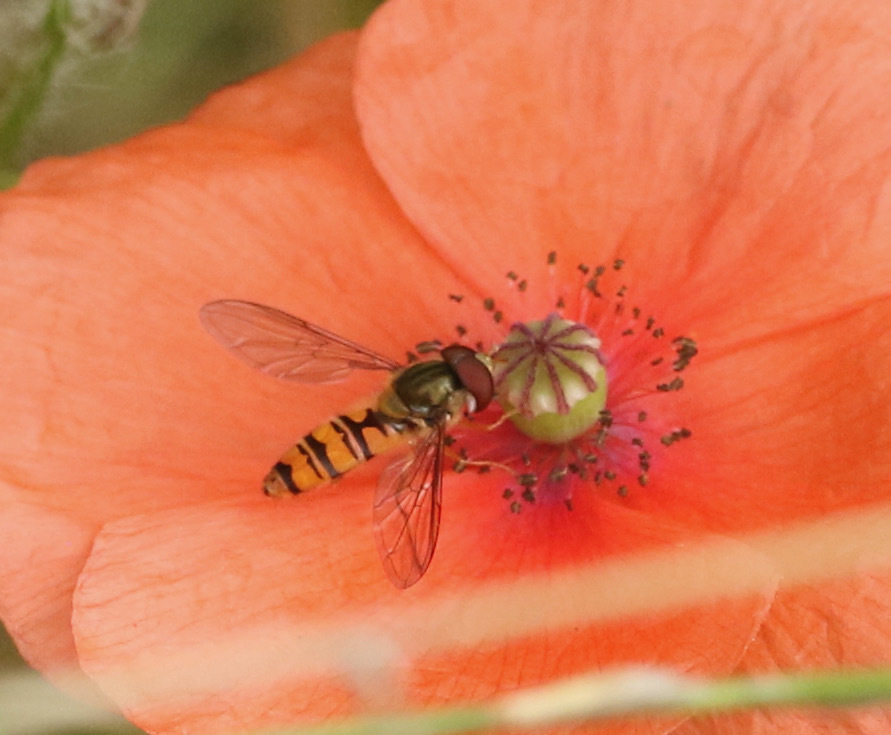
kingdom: Animalia
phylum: Arthropoda
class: Insecta
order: Diptera
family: Syrphidae
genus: Episyrphus
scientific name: Episyrphus balteatus
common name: Marmalade hoverfly
